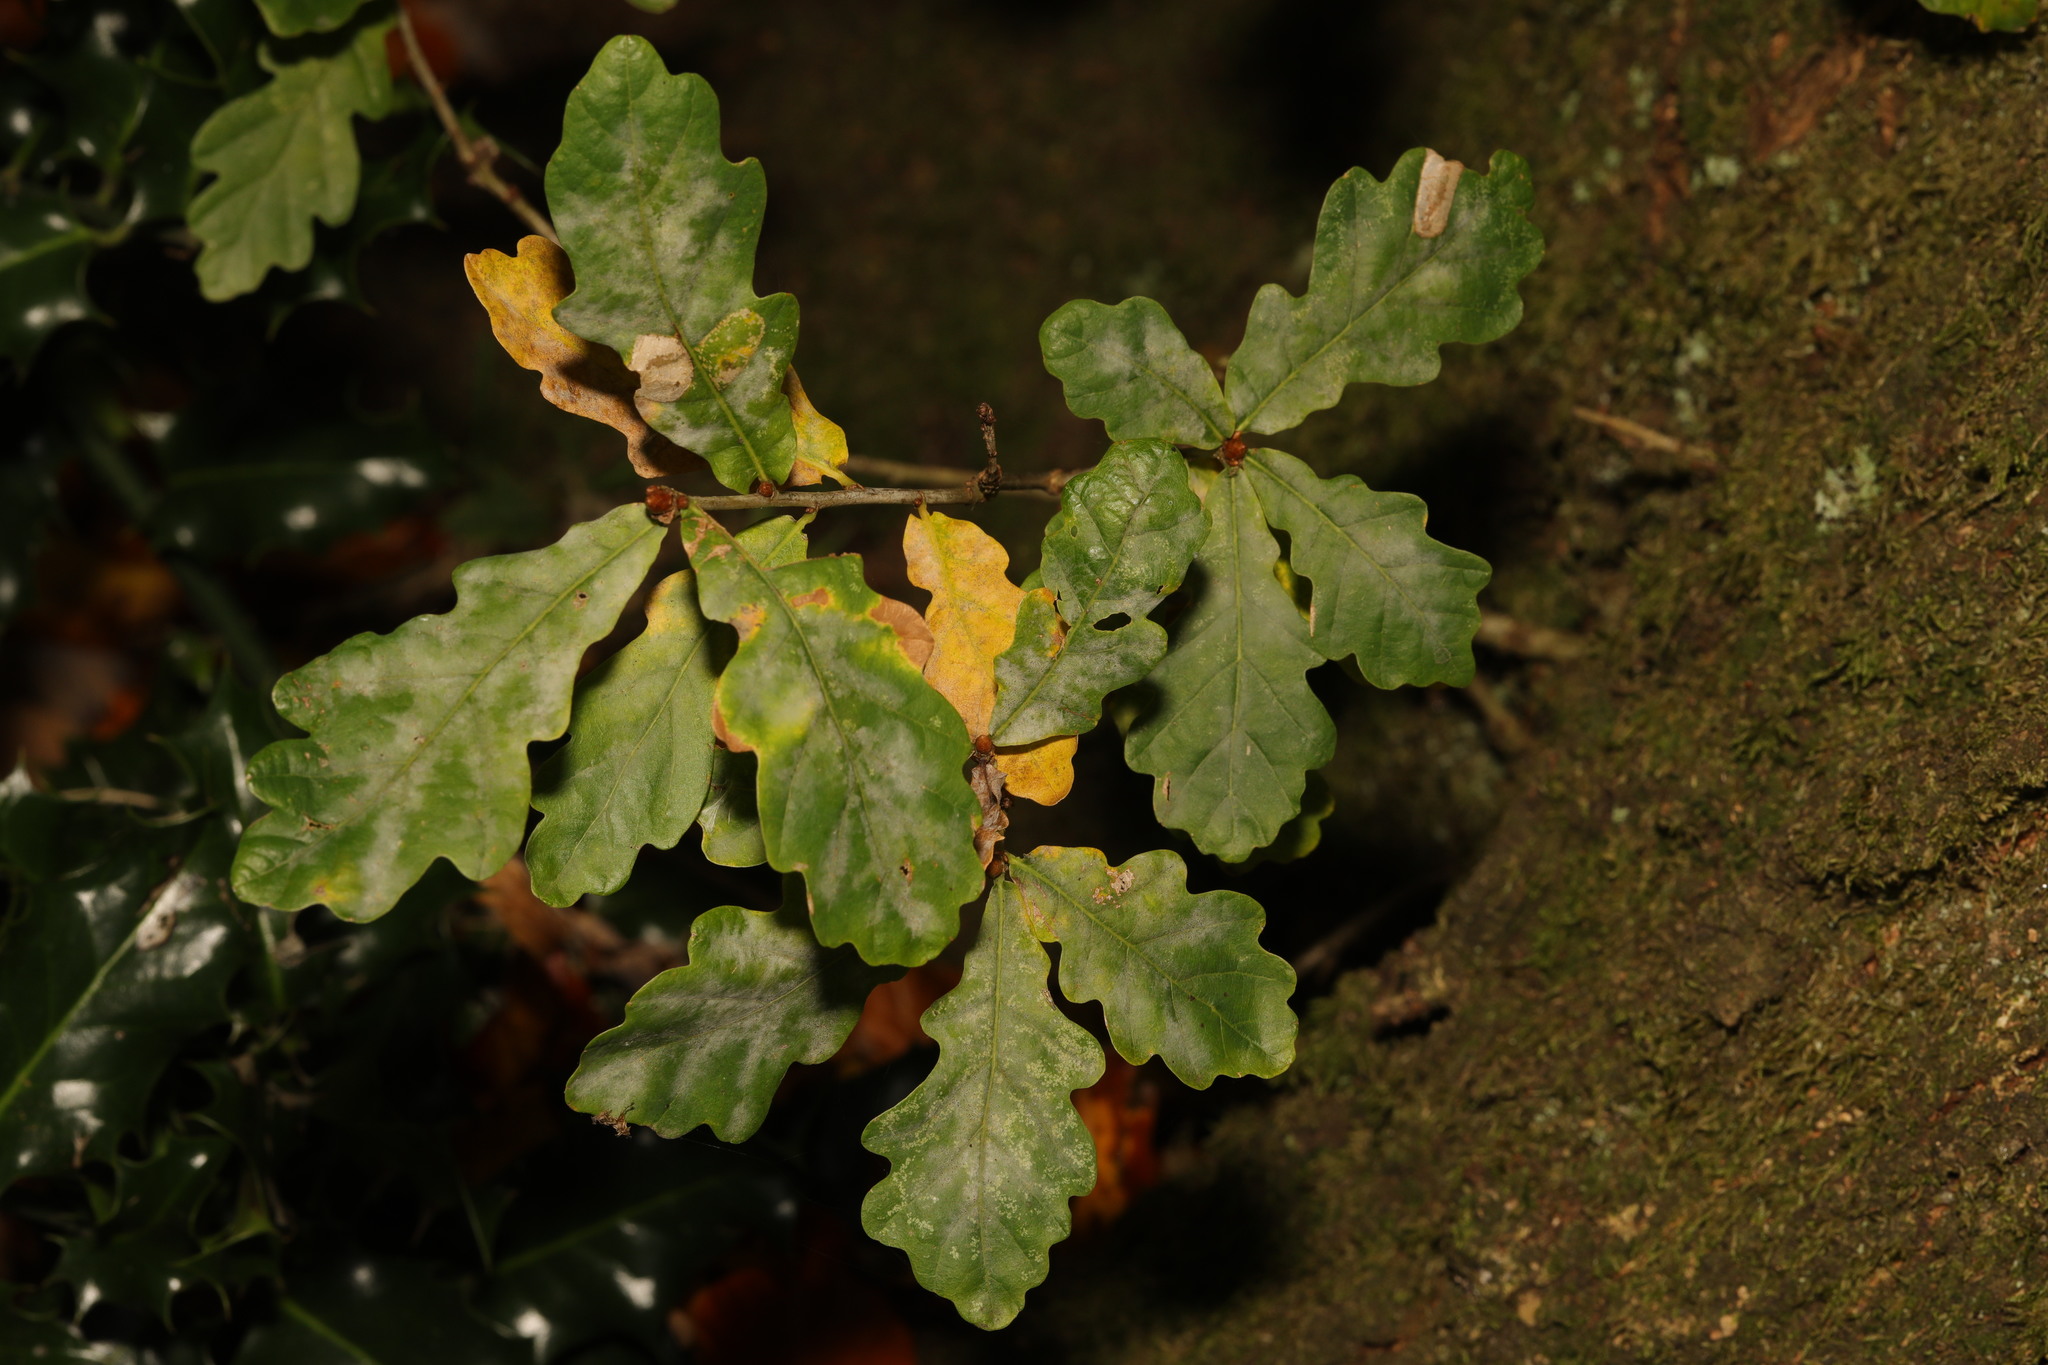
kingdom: Plantae
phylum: Tracheophyta
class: Magnoliopsida
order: Fagales
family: Fagaceae
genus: Quercus
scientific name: Quercus robur
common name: Pedunculate oak
